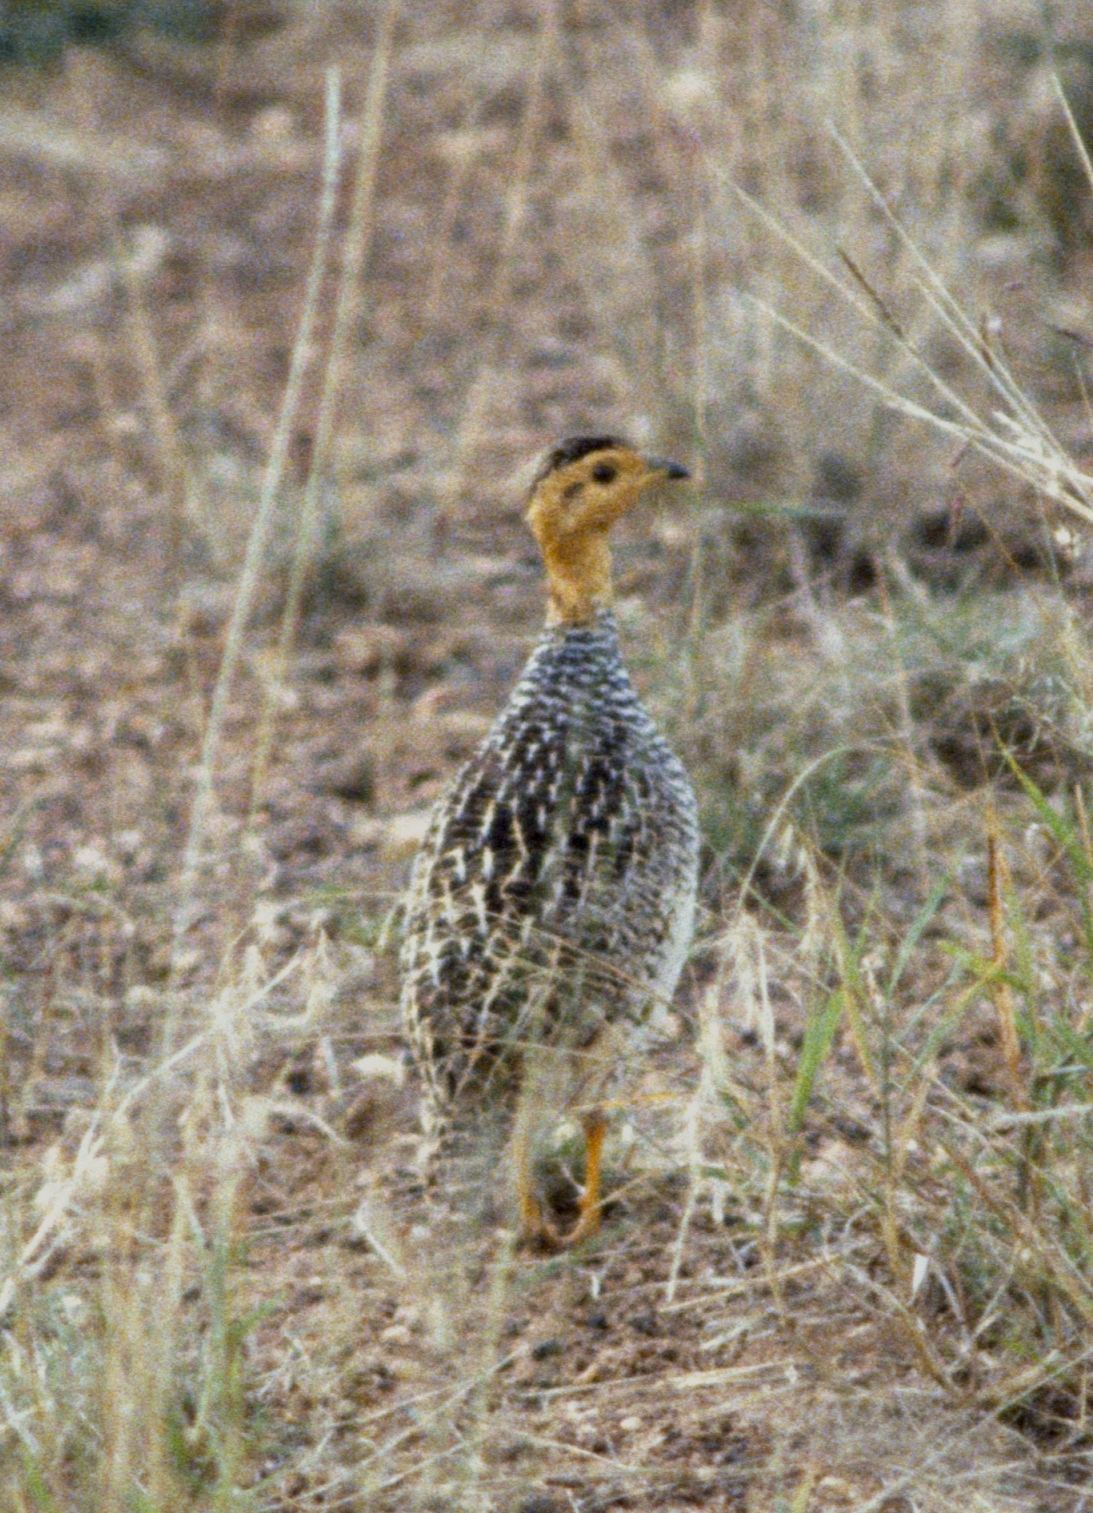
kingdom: Animalia
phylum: Chordata
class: Aves
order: Galliformes
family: Phasianidae
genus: Campocolinus
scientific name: Campocolinus coqui
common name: Coqui francolin
